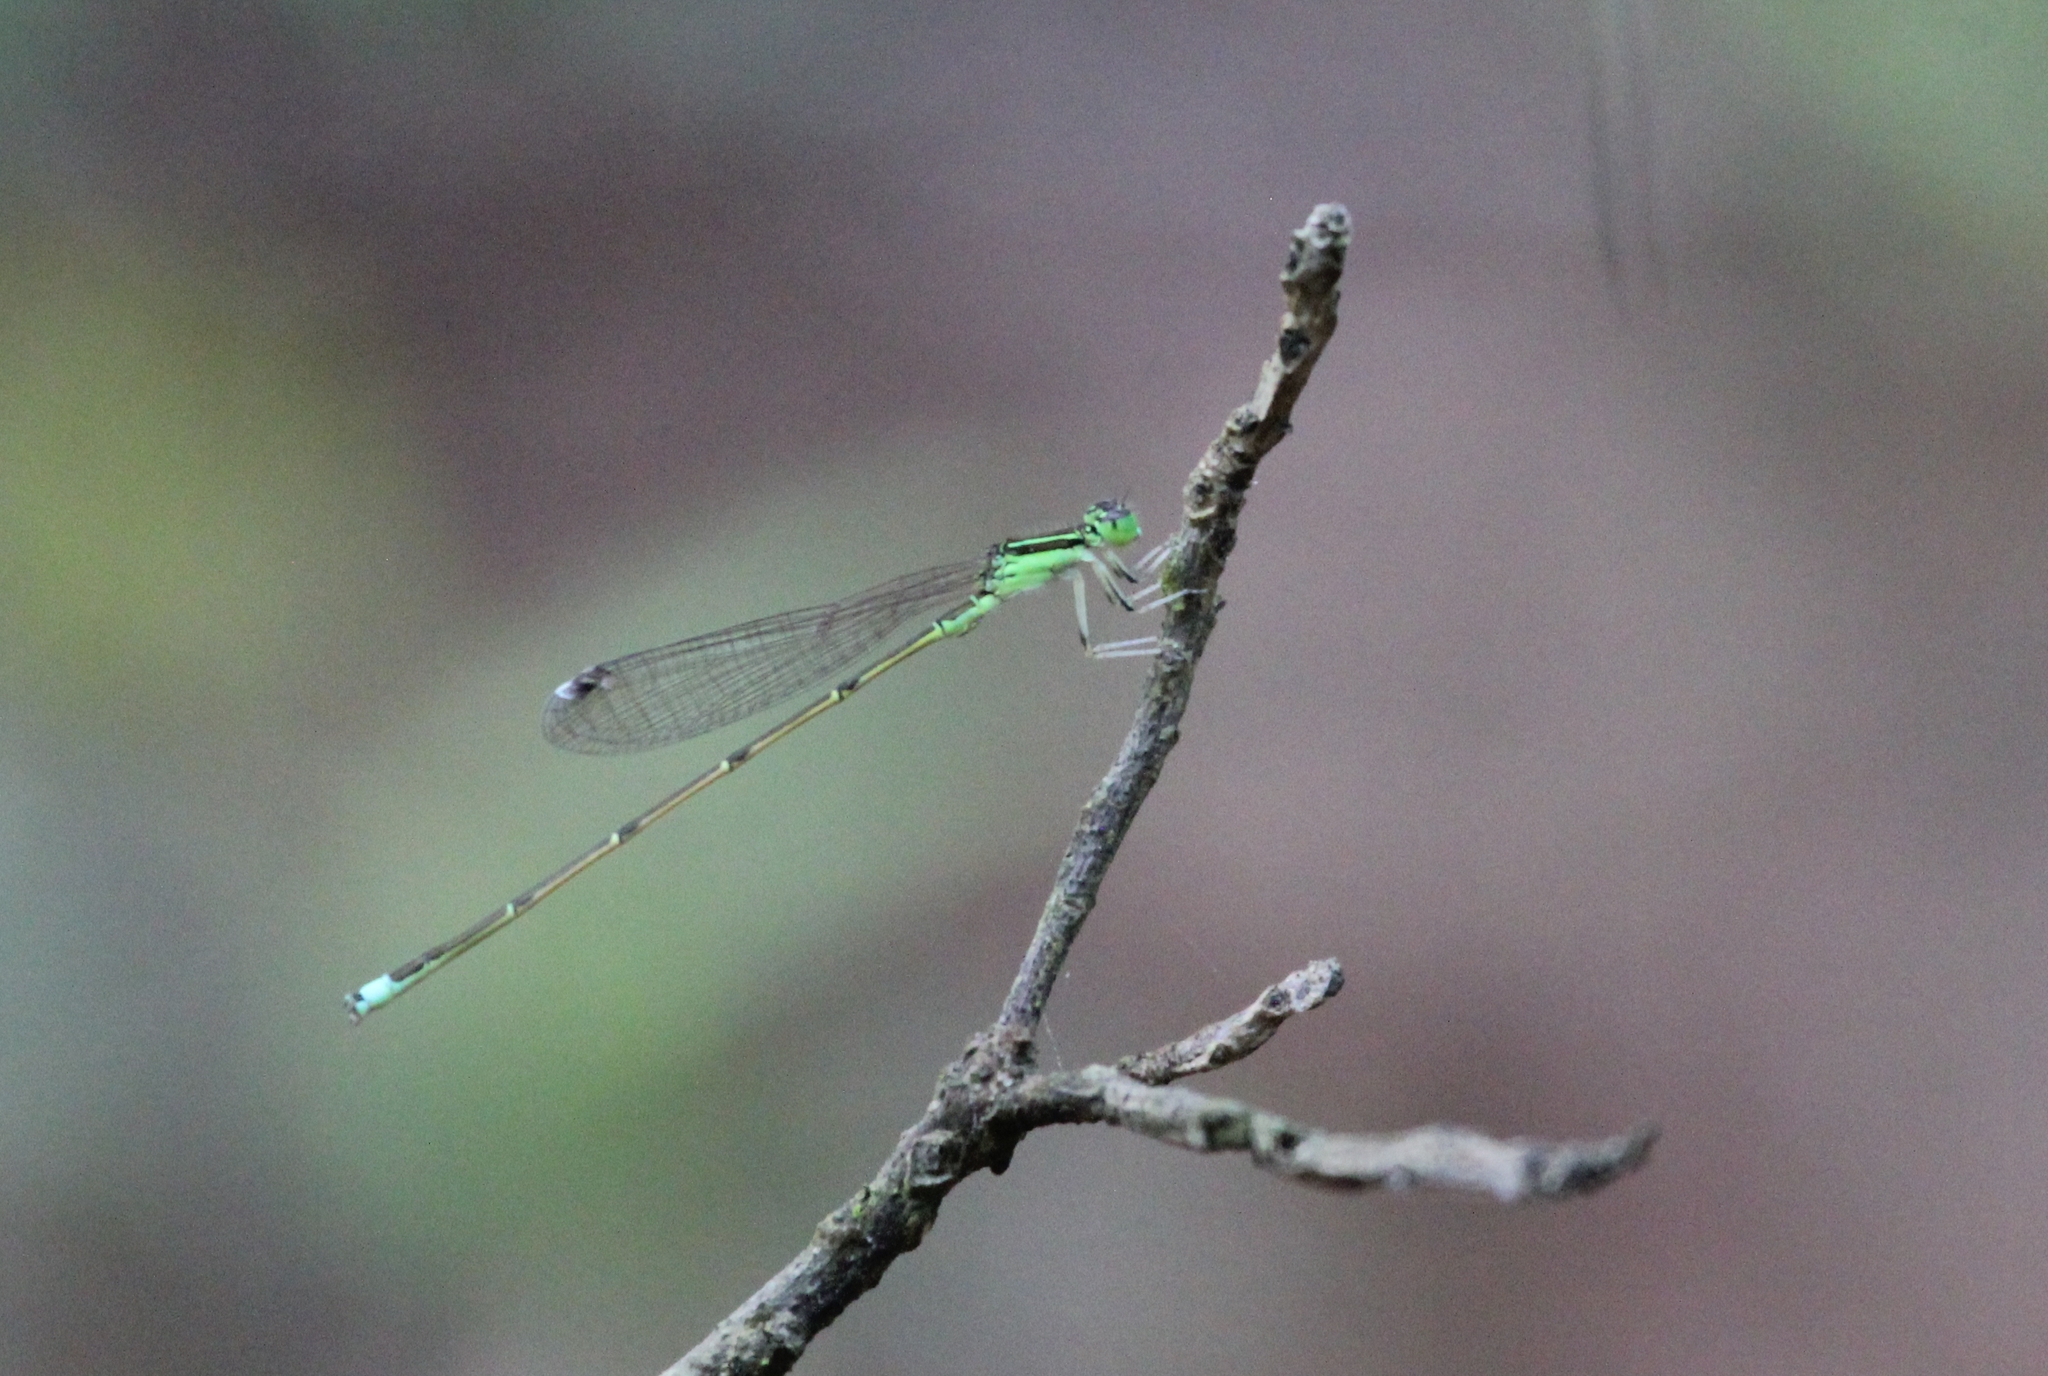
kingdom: Animalia
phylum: Arthropoda
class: Insecta
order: Odonata
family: Coenagrionidae
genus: Ischnura
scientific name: Ischnura prognata
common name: Furtive forktail
